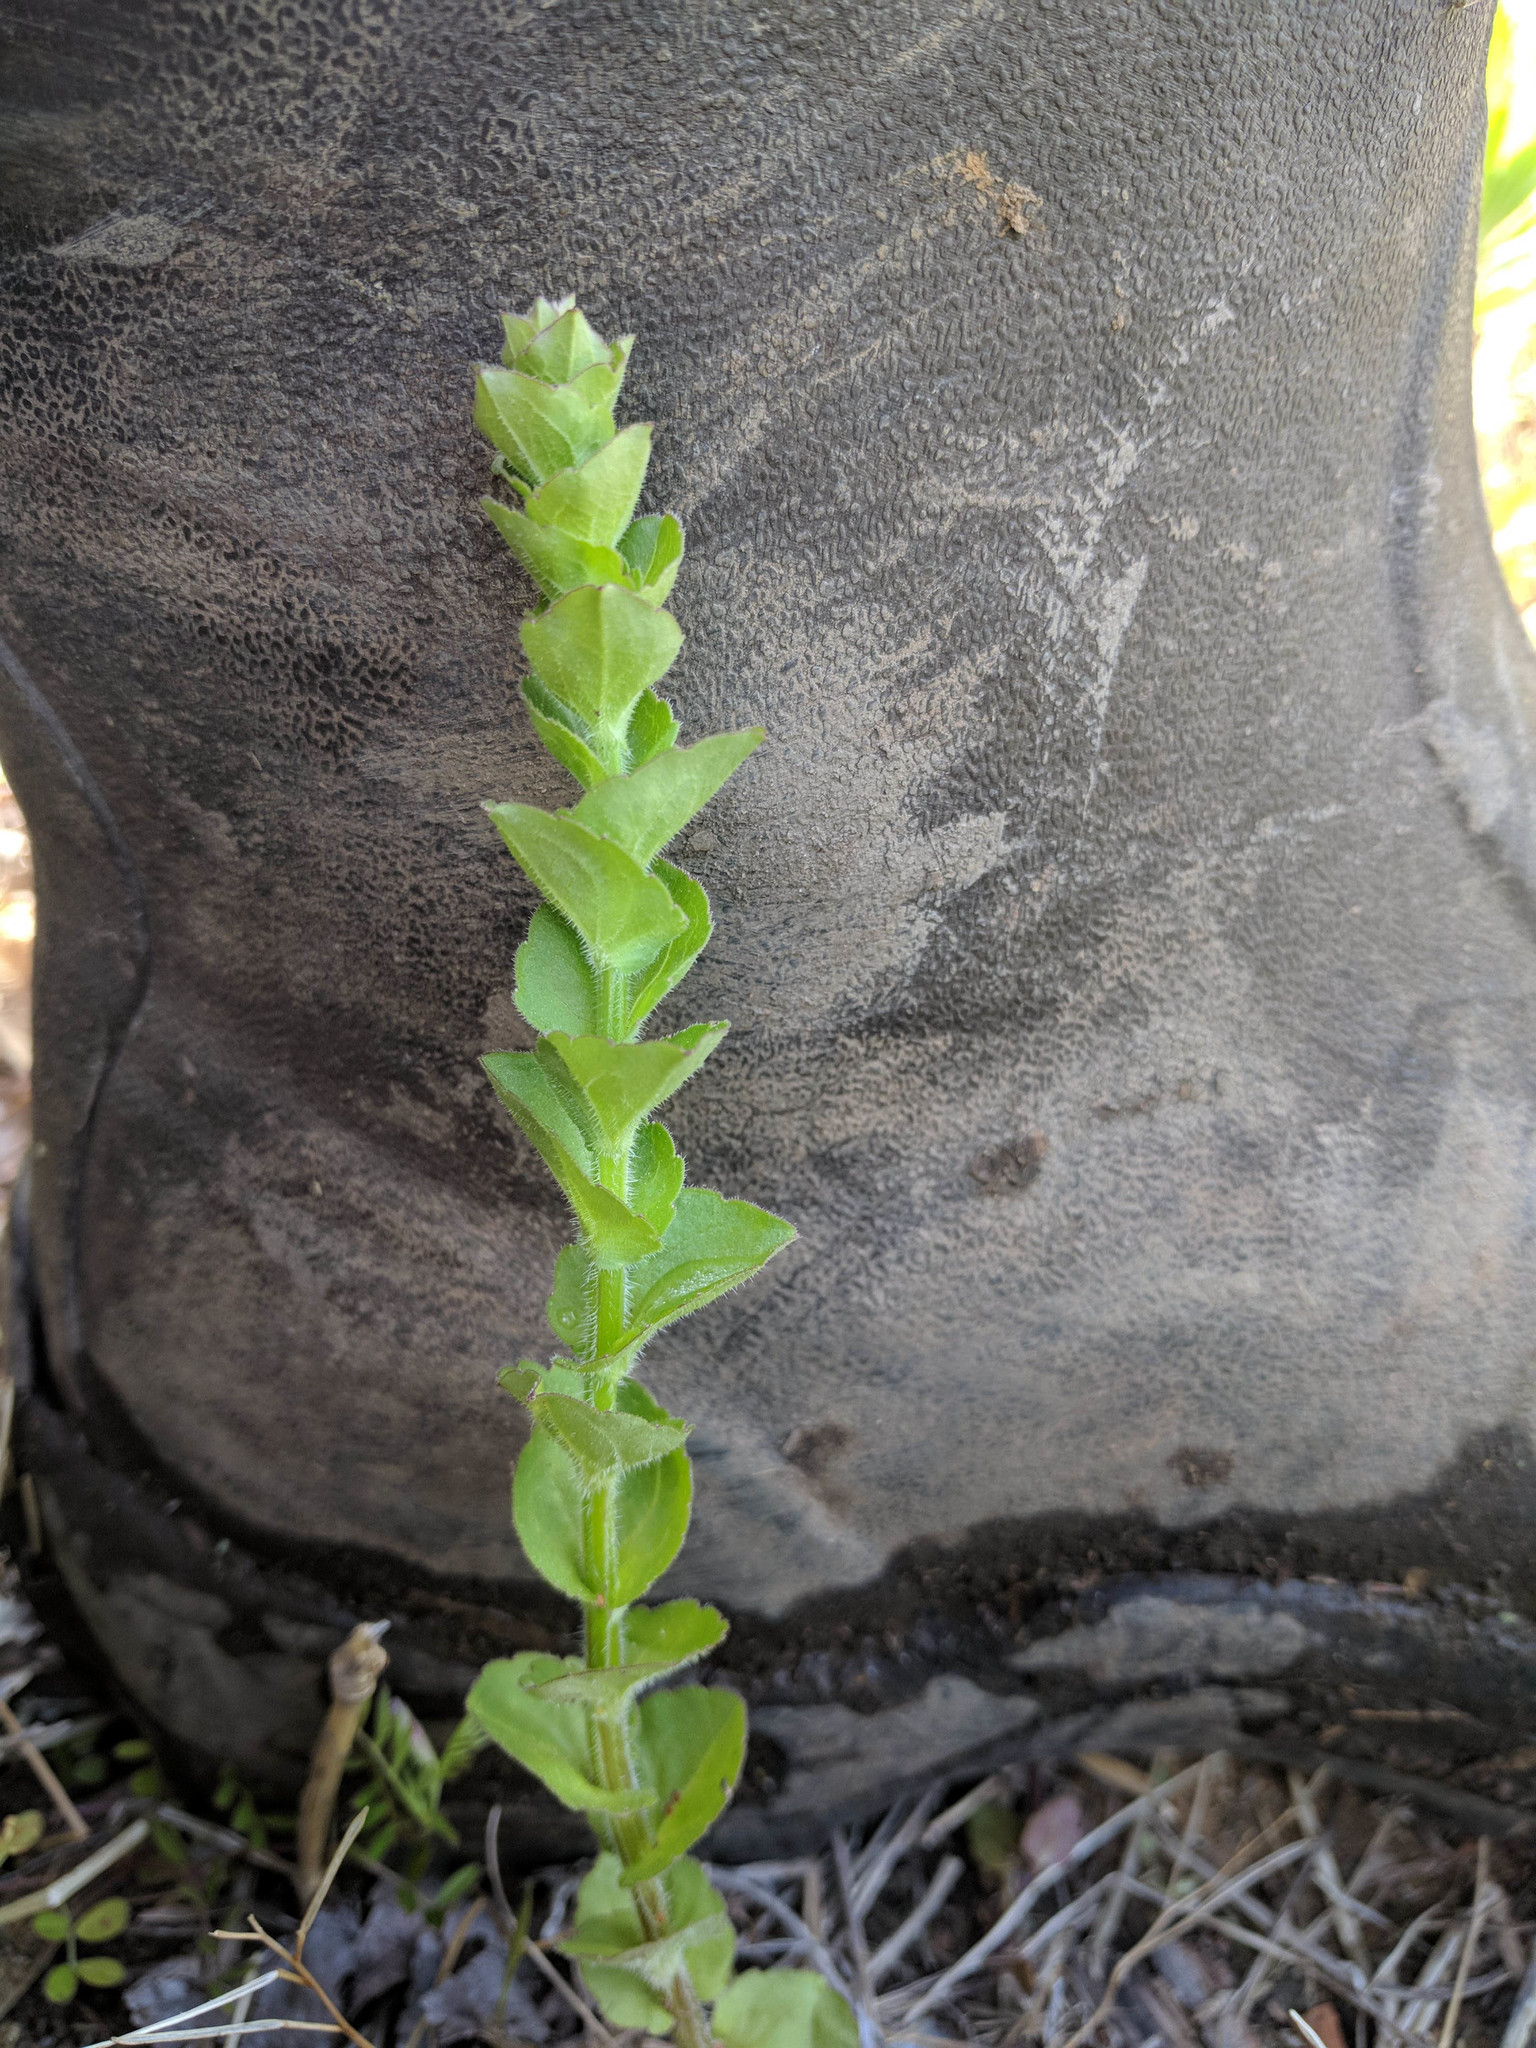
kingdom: Plantae
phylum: Tracheophyta
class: Magnoliopsida
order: Asterales
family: Campanulaceae
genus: Triodanis
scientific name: Triodanis perfoliata
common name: Clasping venus' looking-glass
